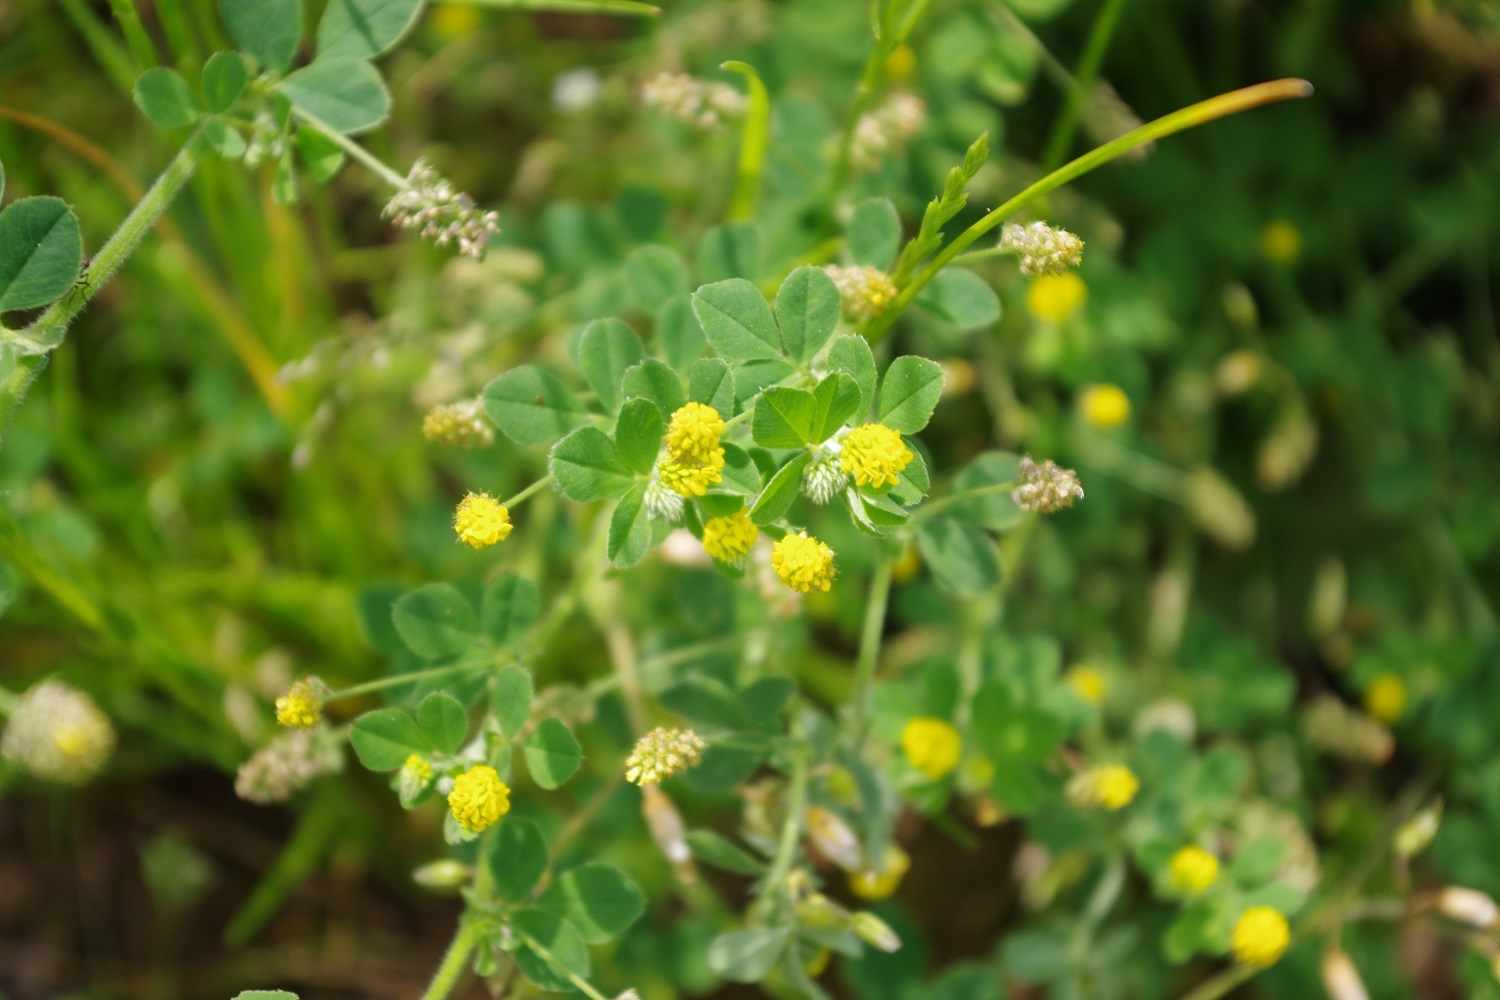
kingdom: Plantae
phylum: Tracheophyta
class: Magnoliopsida
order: Fabales
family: Fabaceae
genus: Medicago
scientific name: Medicago lupulina
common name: Black medick
